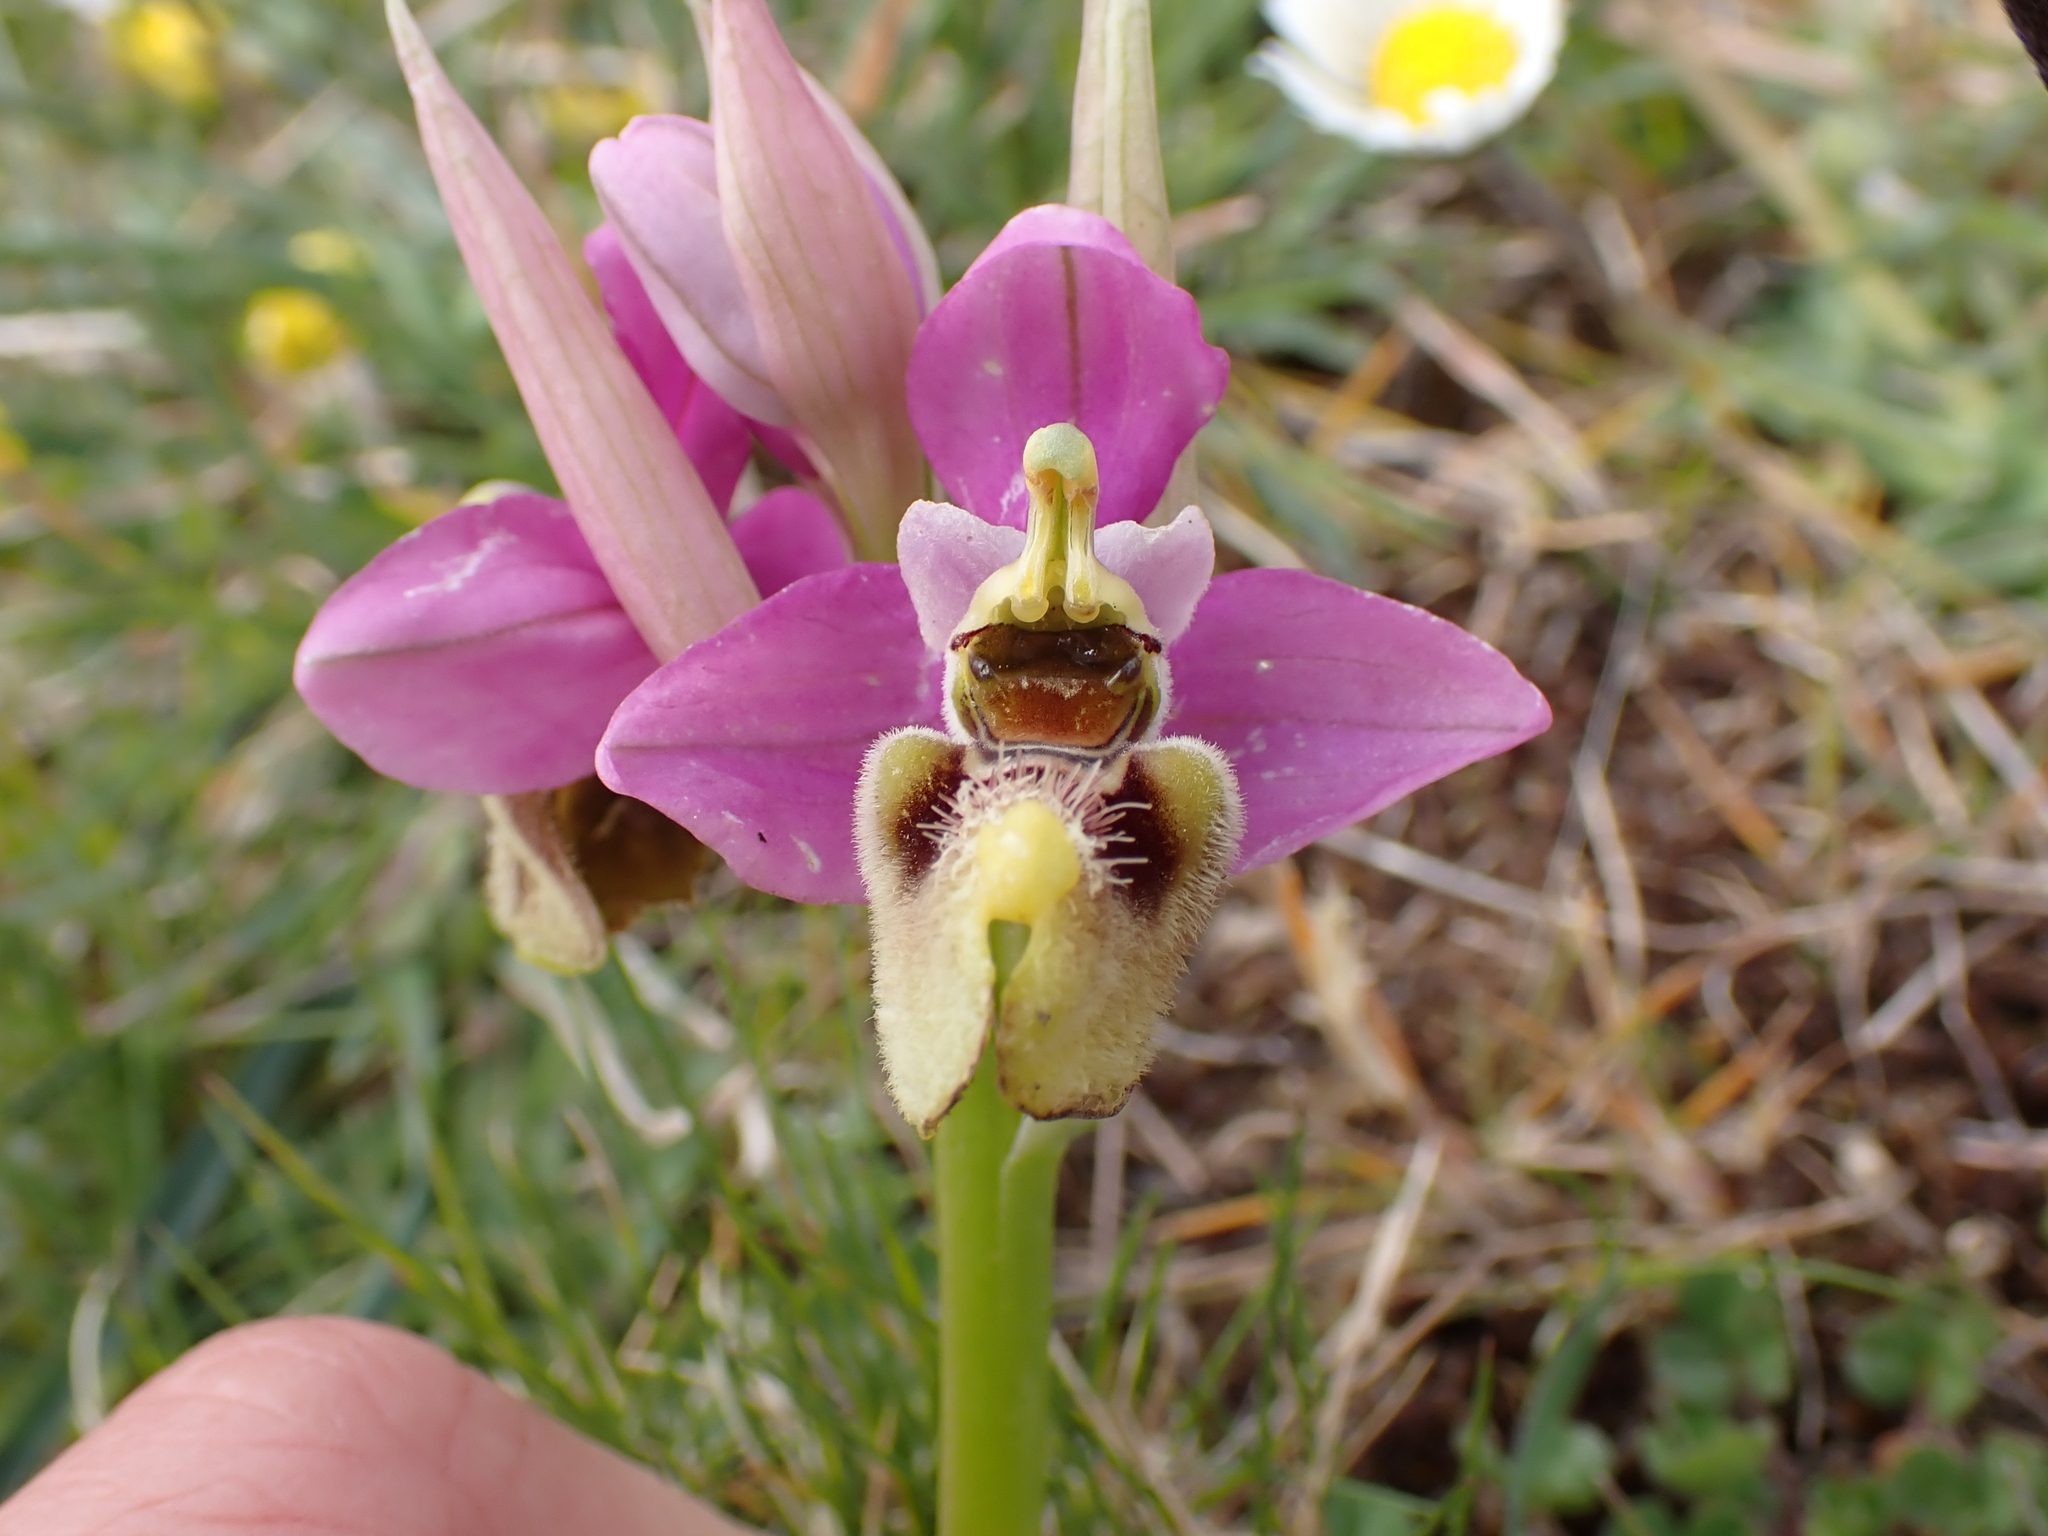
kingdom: Plantae
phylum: Tracheophyta
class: Liliopsida
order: Asparagales
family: Orchidaceae
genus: Ophrys
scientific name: Ophrys tenthredinifera
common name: Sawfly orchid
